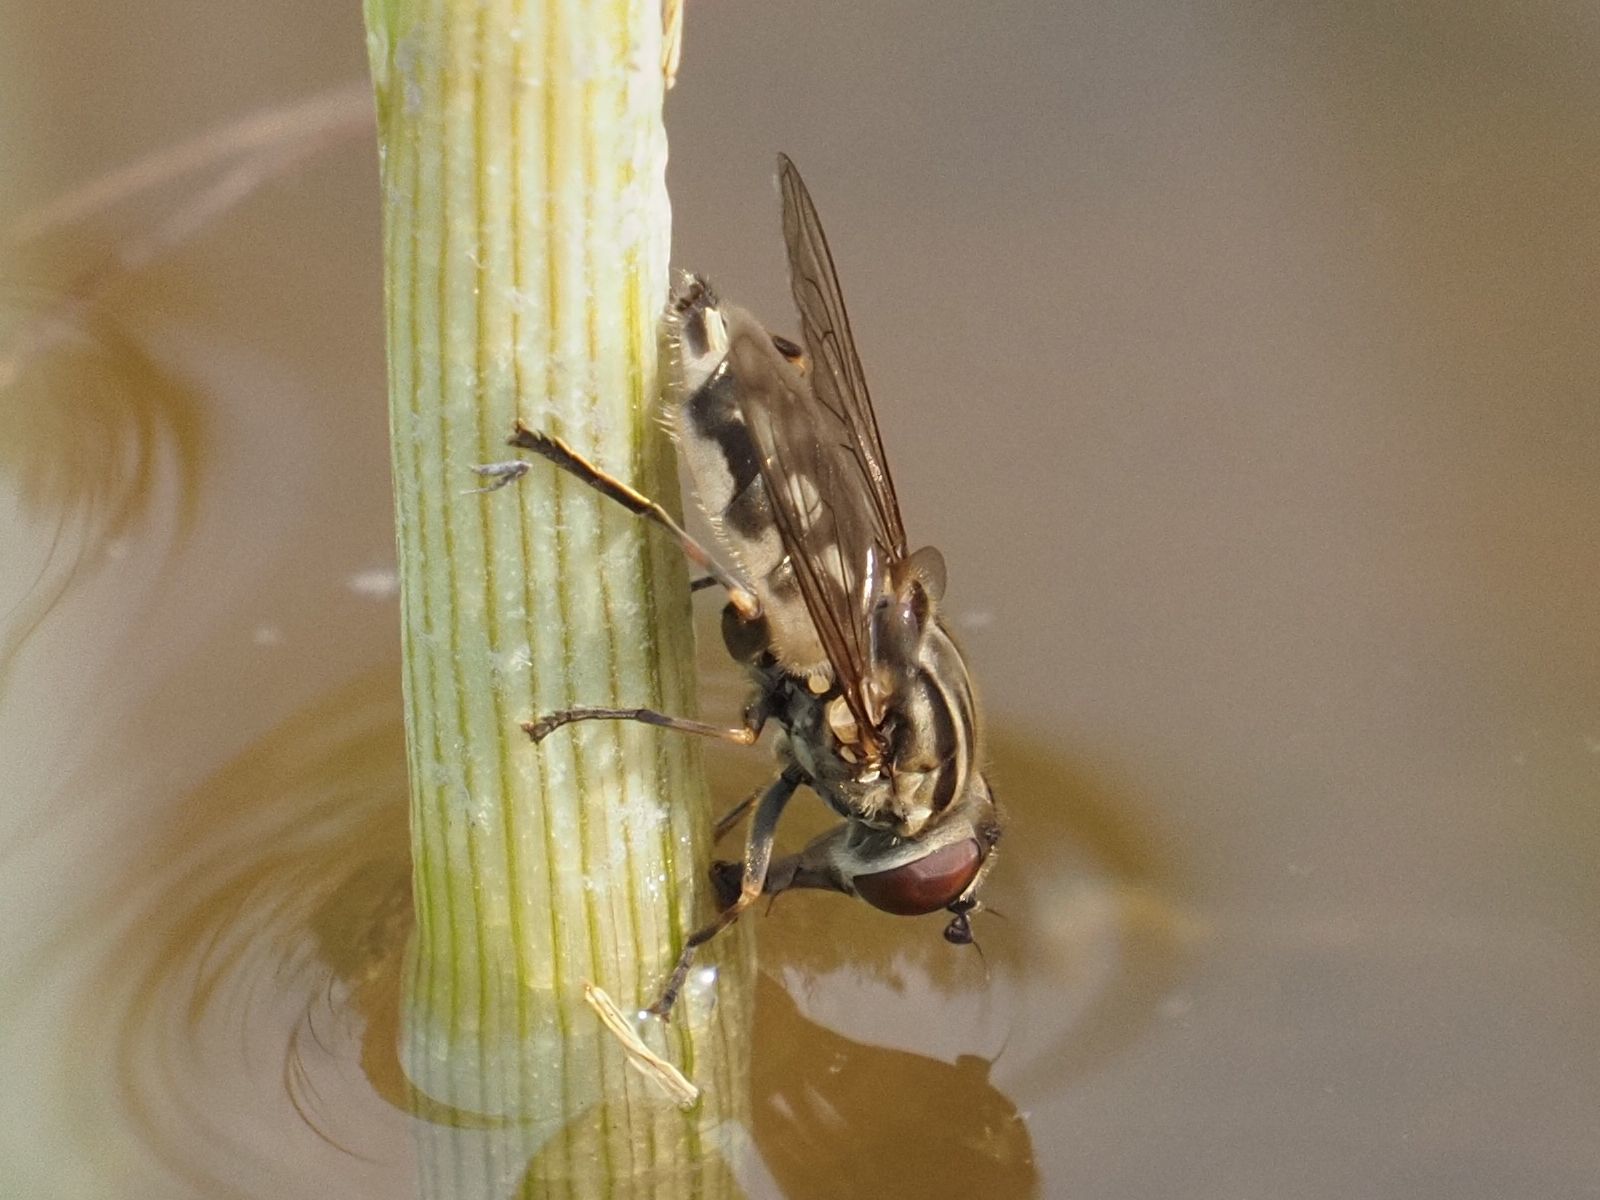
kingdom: Animalia
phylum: Arthropoda
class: Insecta
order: Diptera
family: Syrphidae
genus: Lejops
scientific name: Lejops vittatus
